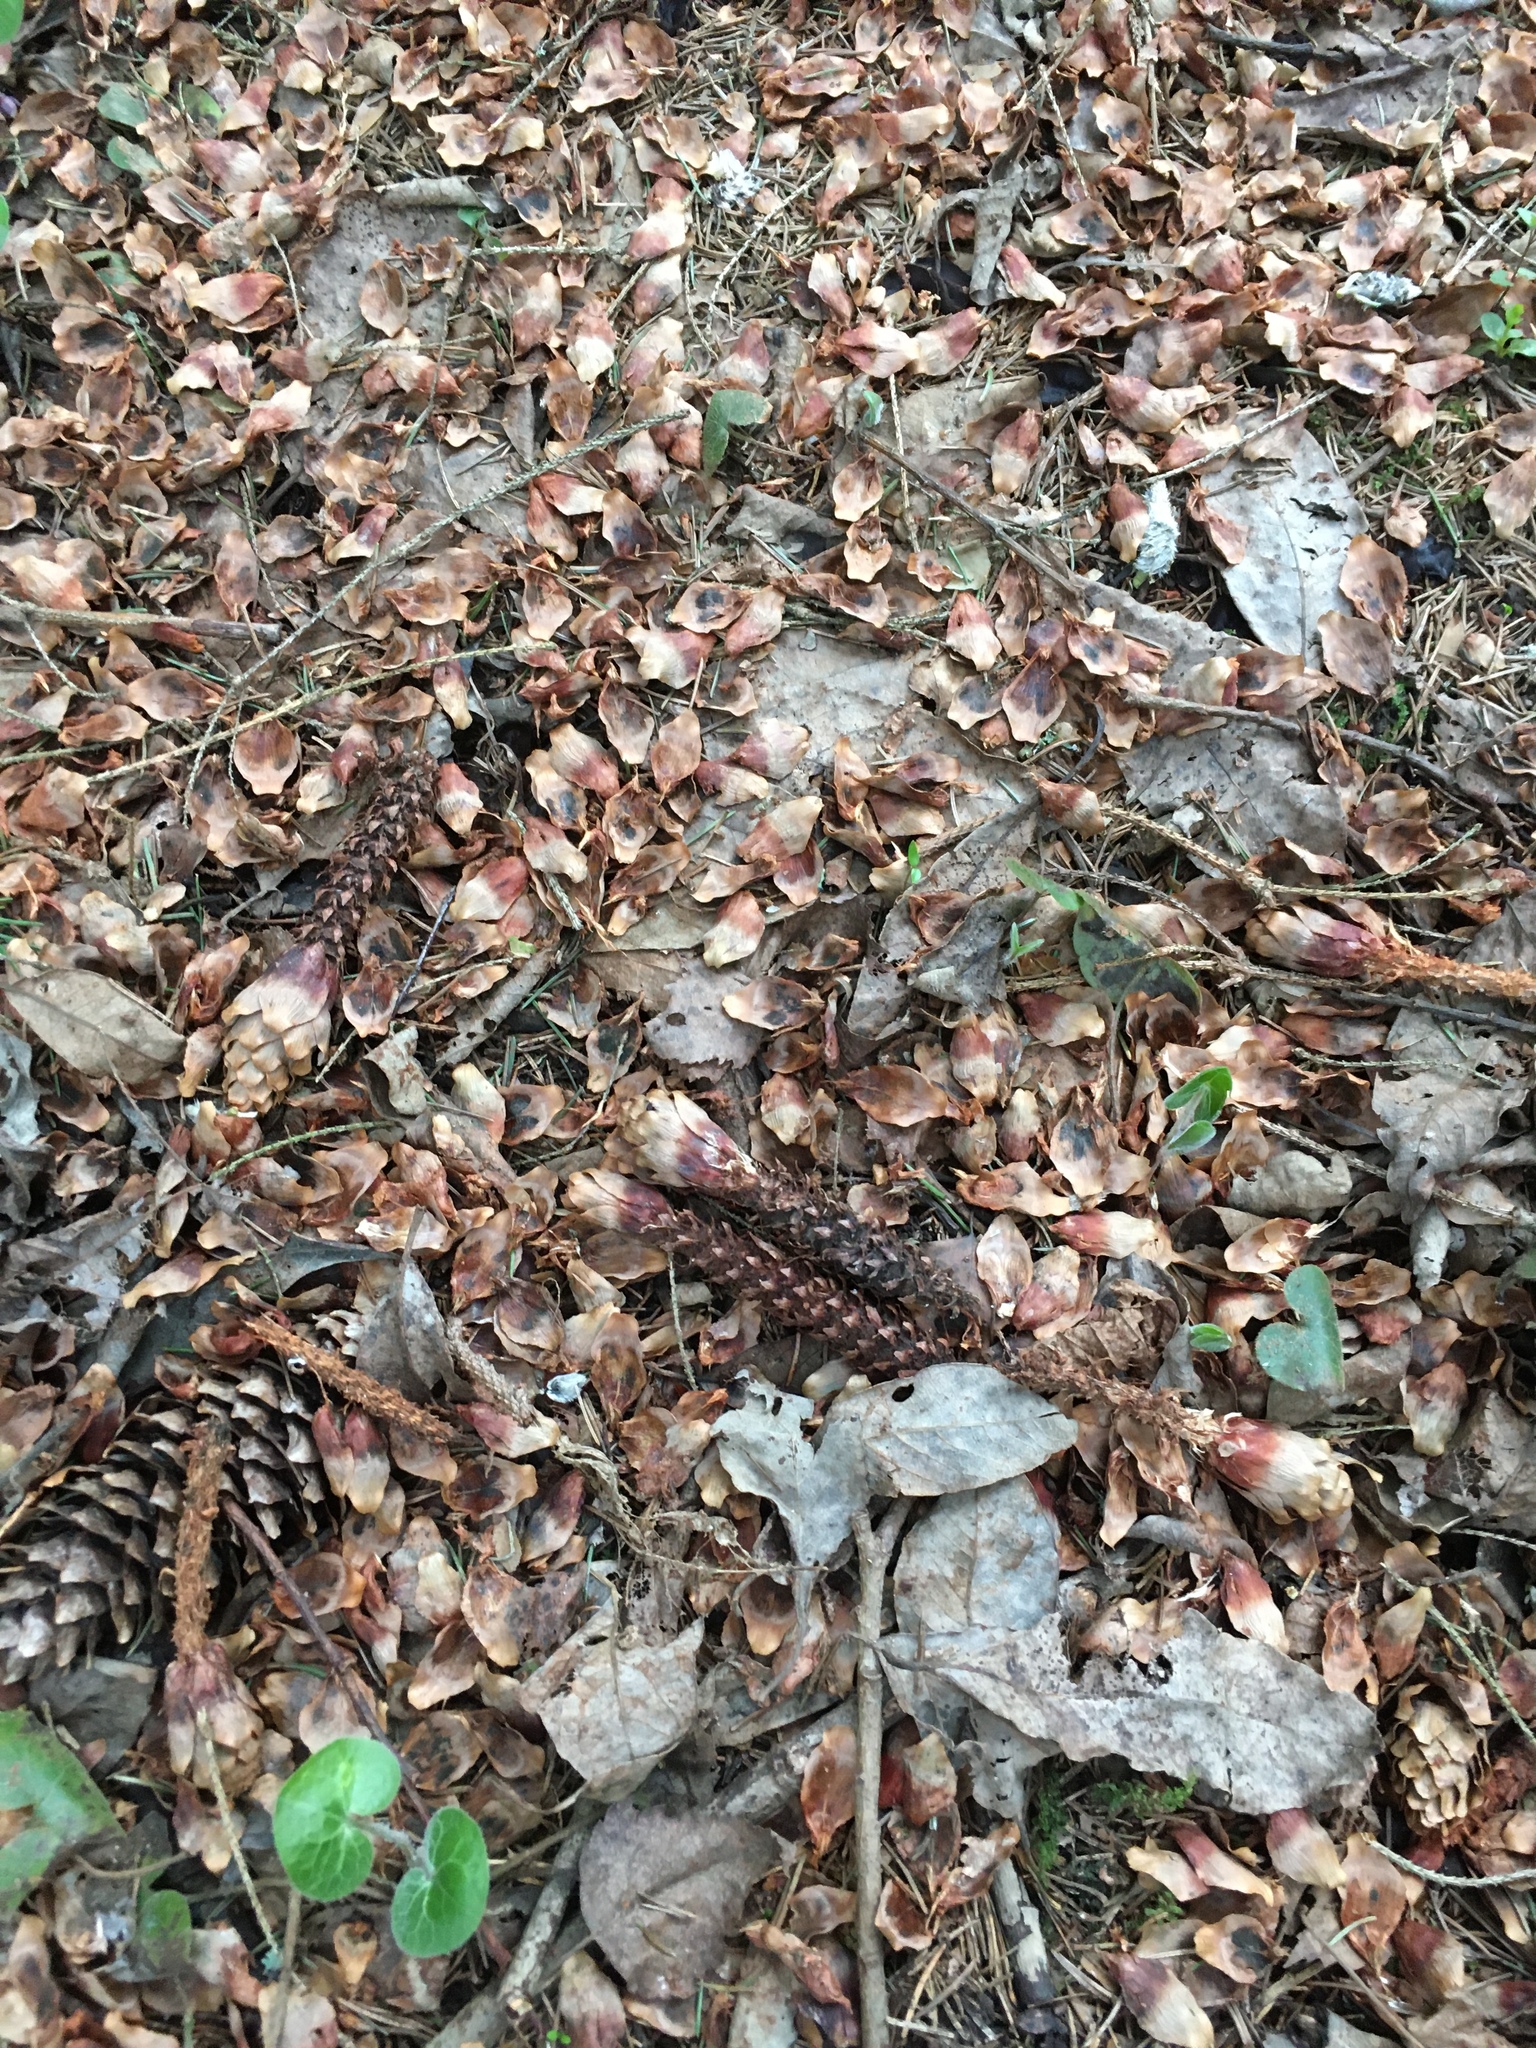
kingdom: Animalia
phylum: Chordata
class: Mammalia
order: Rodentia
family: Sciuridae
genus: Sciurus
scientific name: Sciurus vulgaris
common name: Eurasian red squirrel
